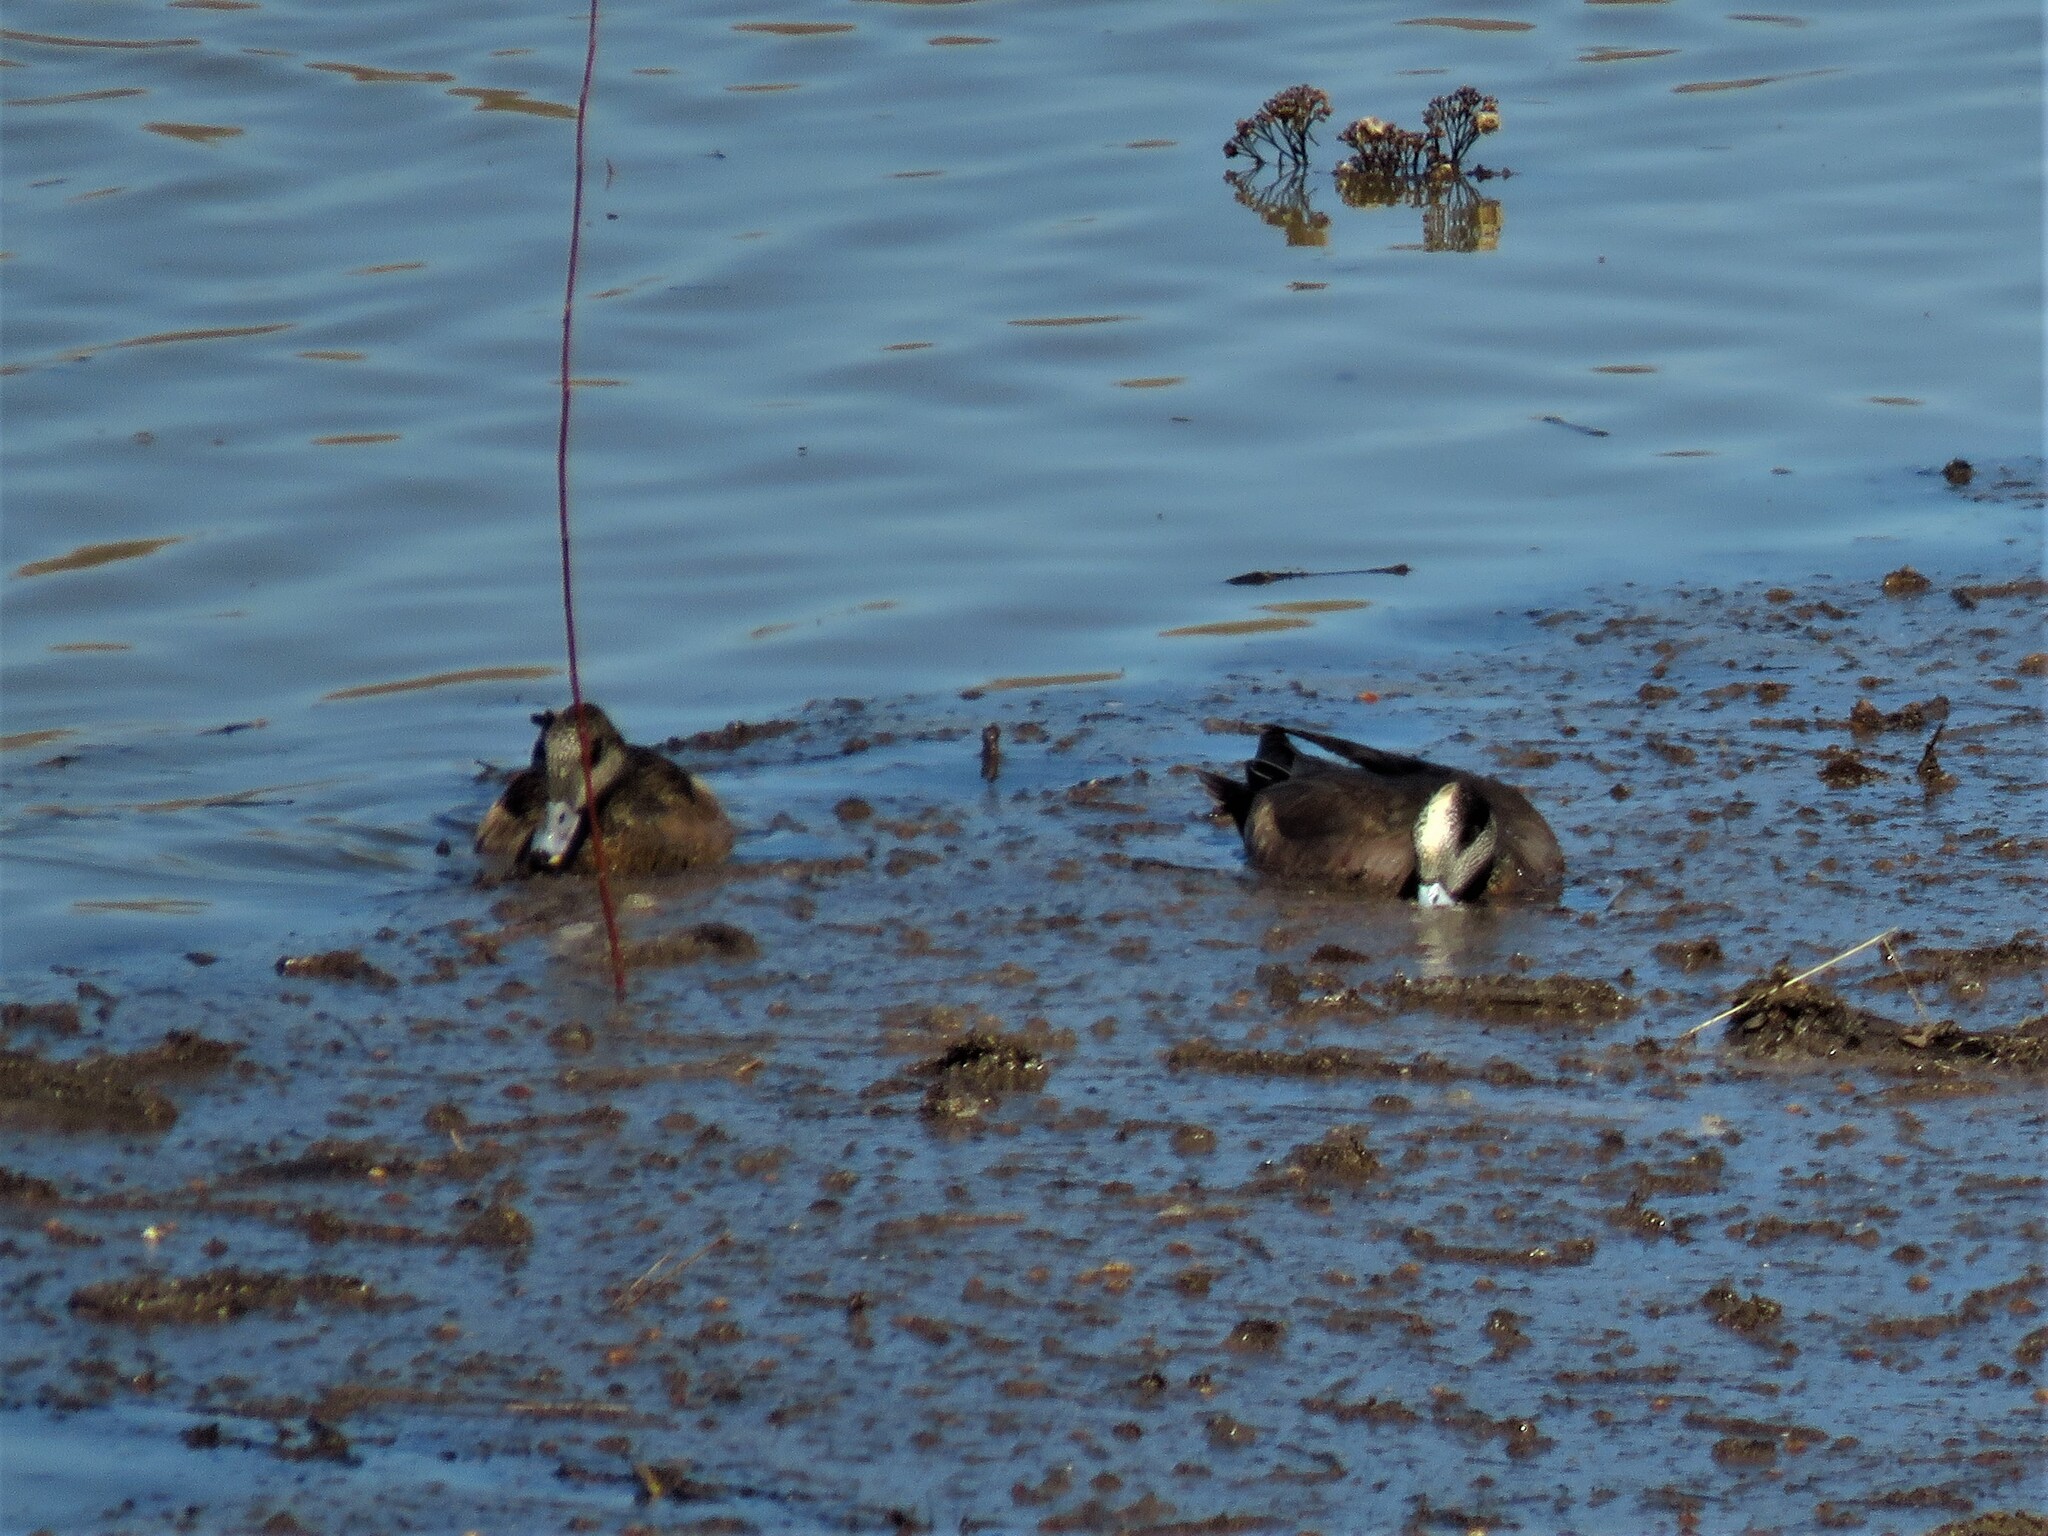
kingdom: Animalia
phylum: Chordata
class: Aves
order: Anseriformes
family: Anatidae
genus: Mareca
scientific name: Mareca americana
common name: American wigeon
